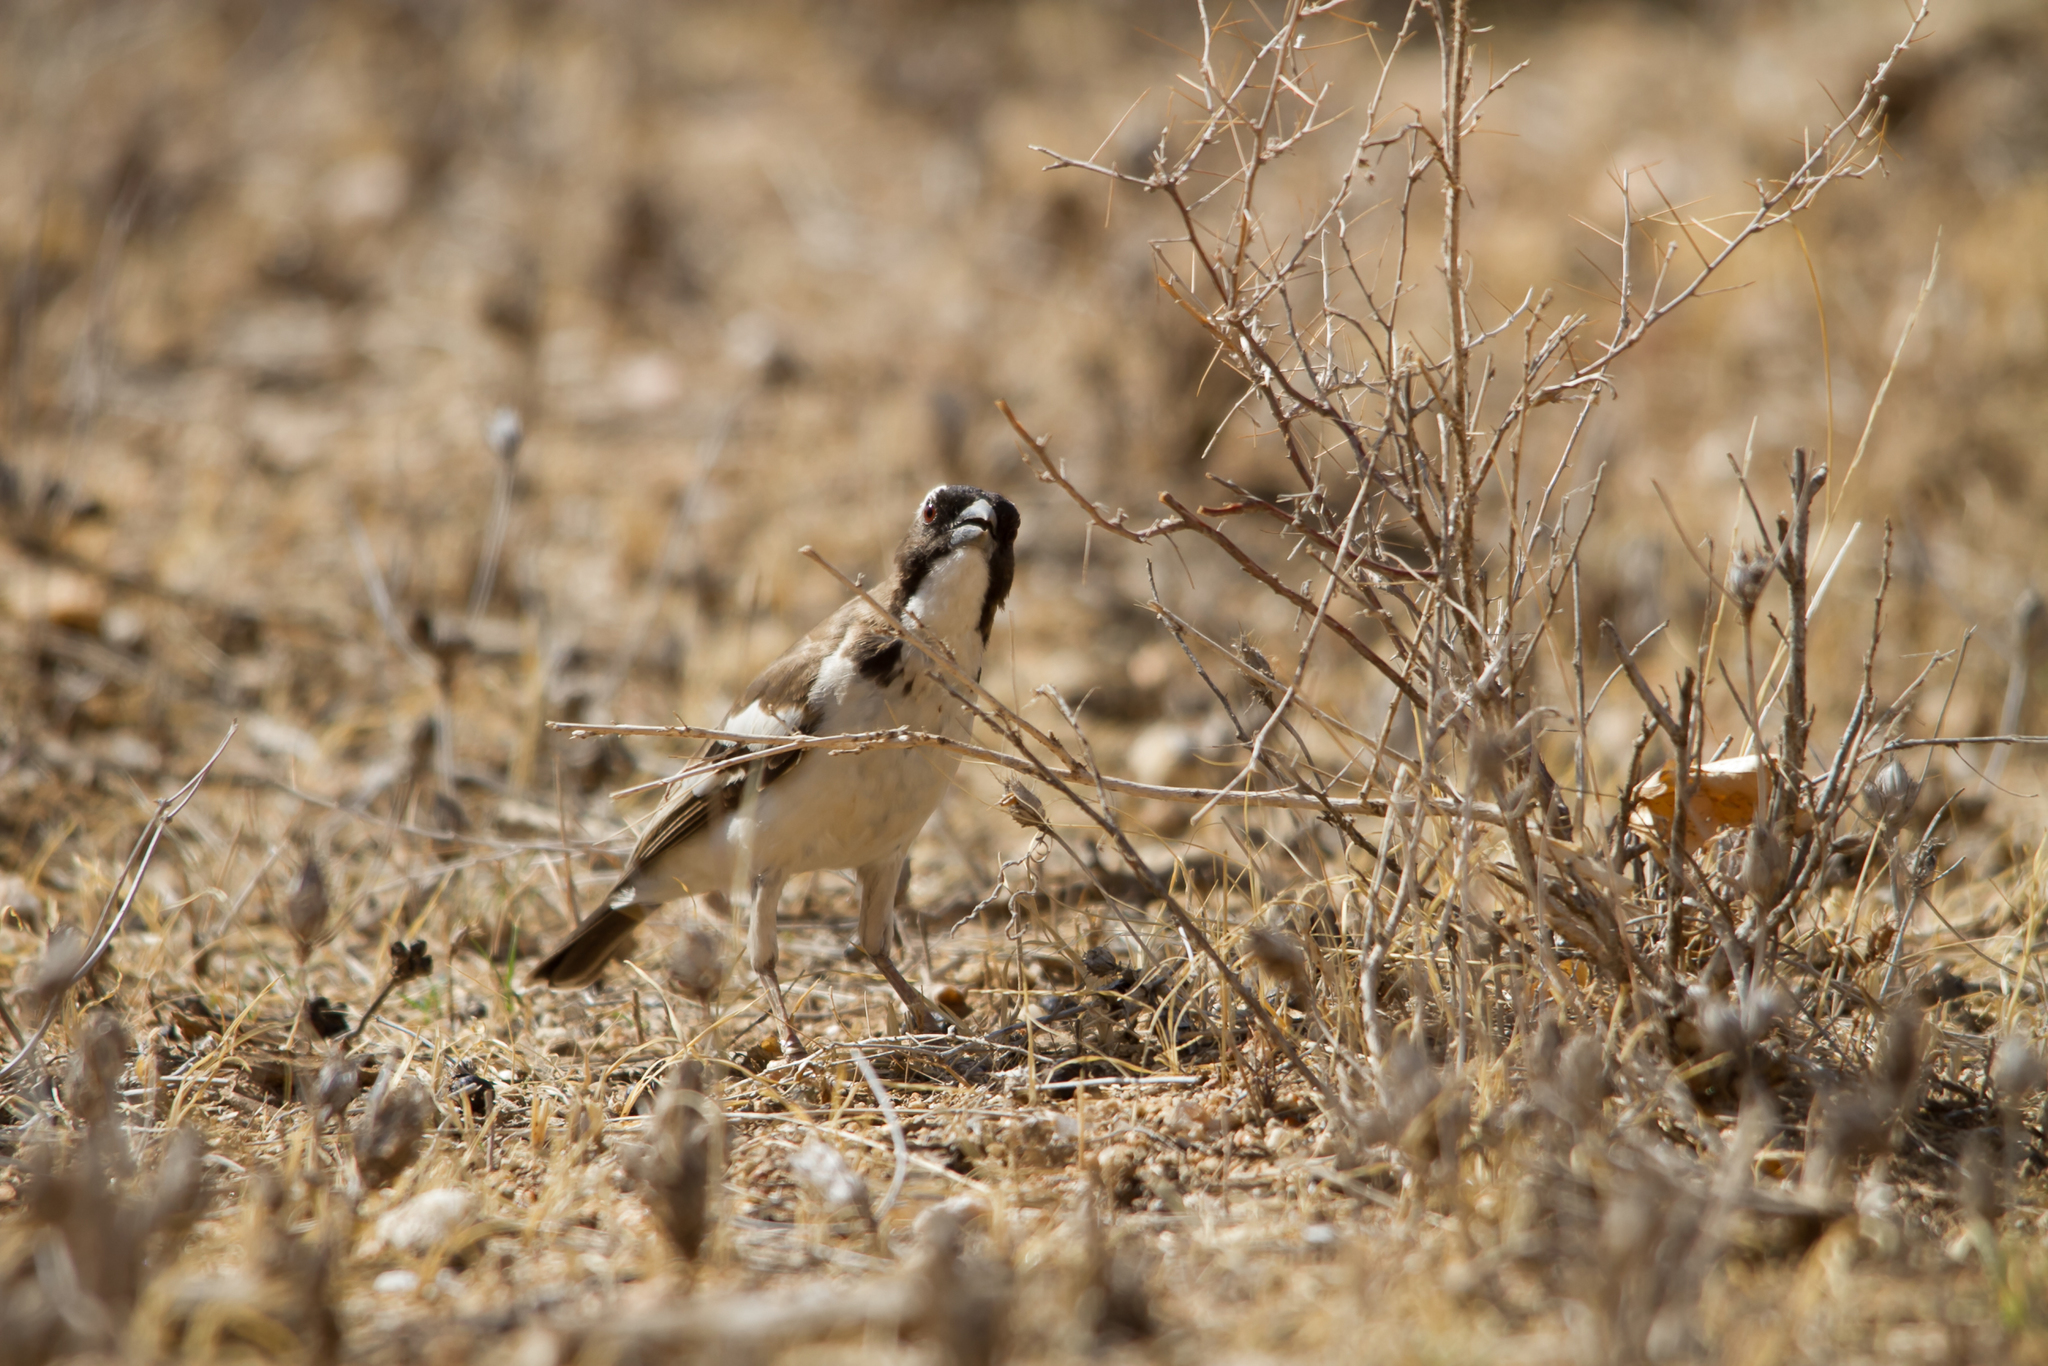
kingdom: Animalia
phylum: Chordata
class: Aves
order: Passeriformes
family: Passeridae
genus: Plocepasser
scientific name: Plocepasser mahali
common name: White-browed sparrow-weaver
